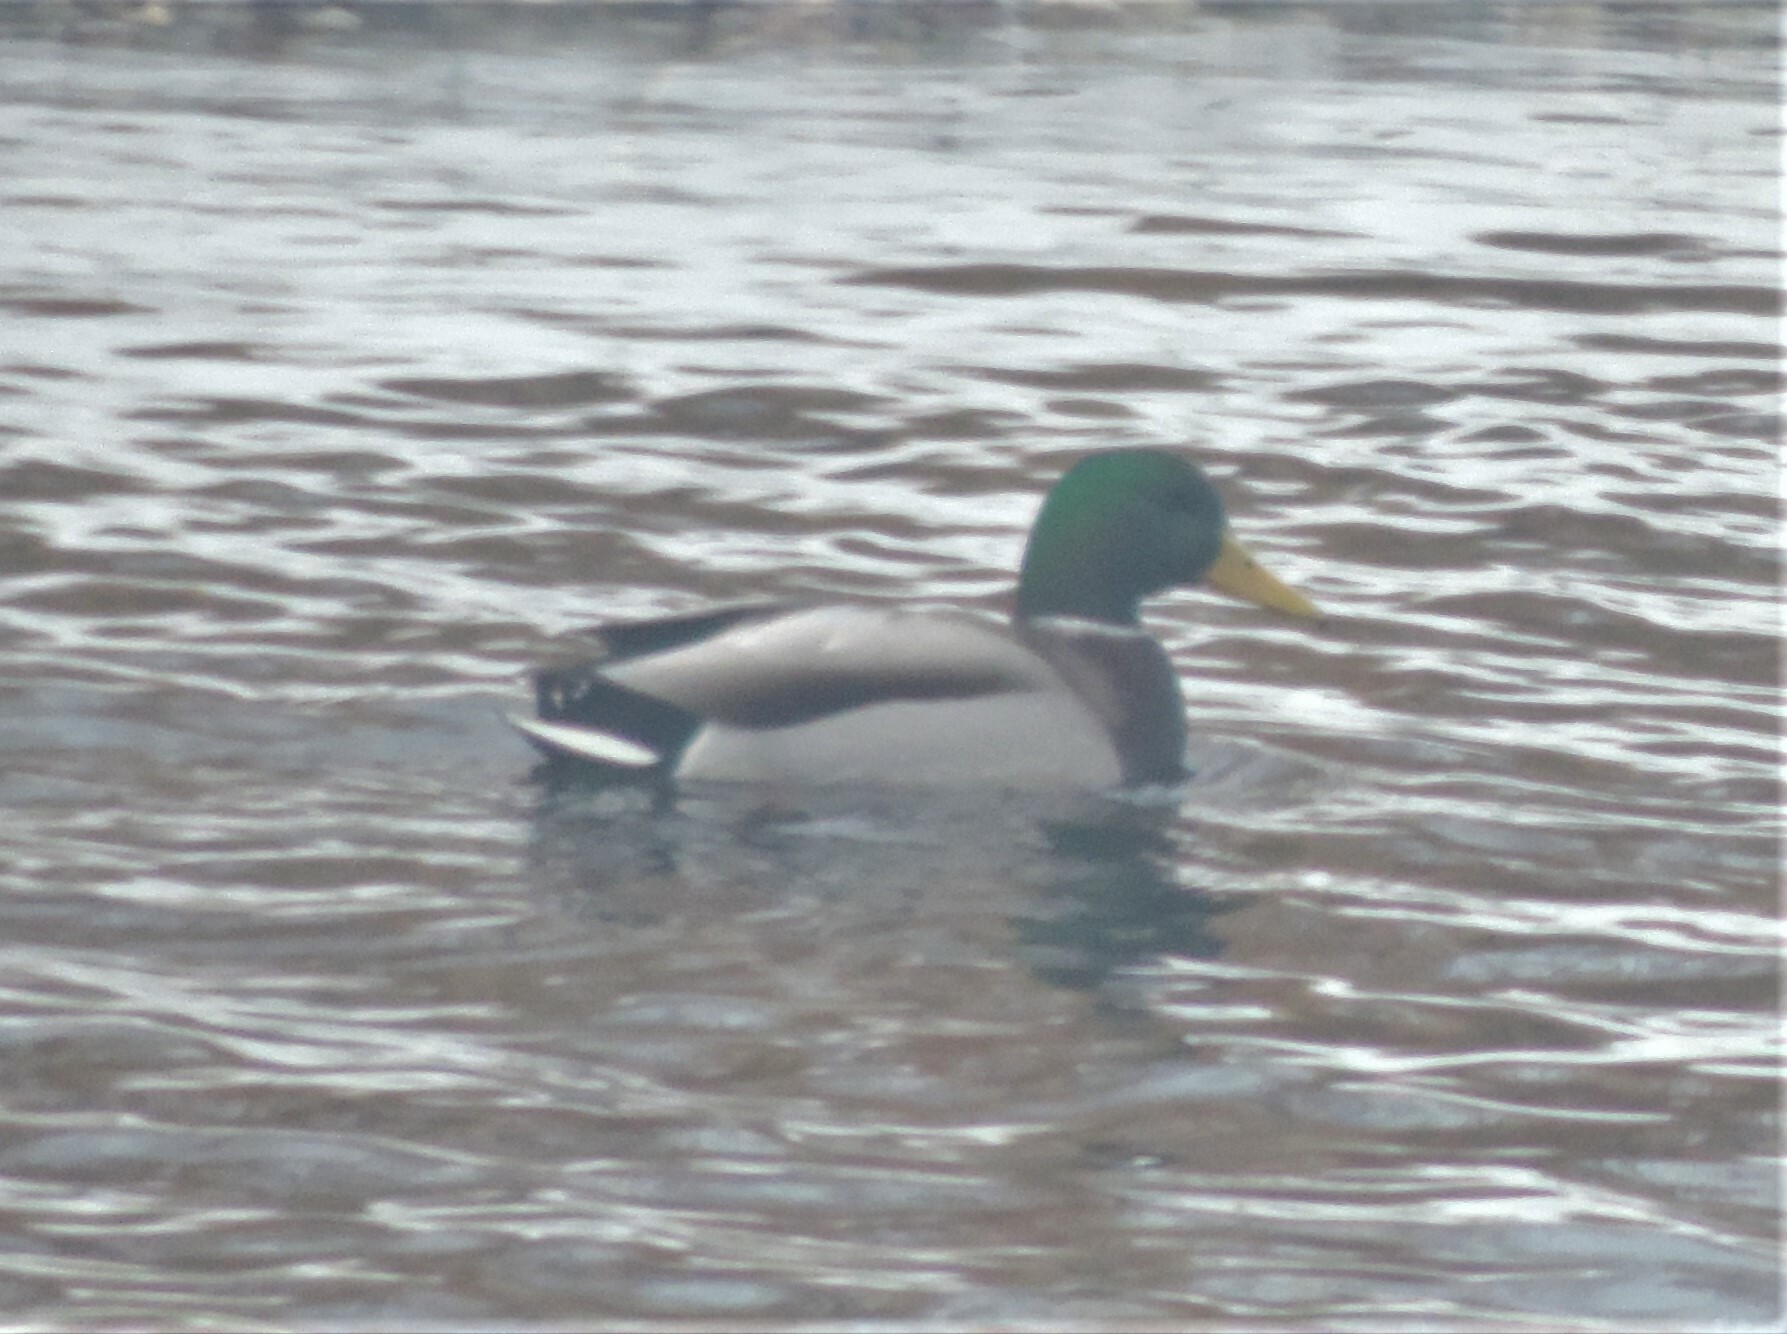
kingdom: Animalia
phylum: Chordata
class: Aves
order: Anseriformes
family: Anatidae
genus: Anas
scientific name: Anas platyrhynchos
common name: Mallard
